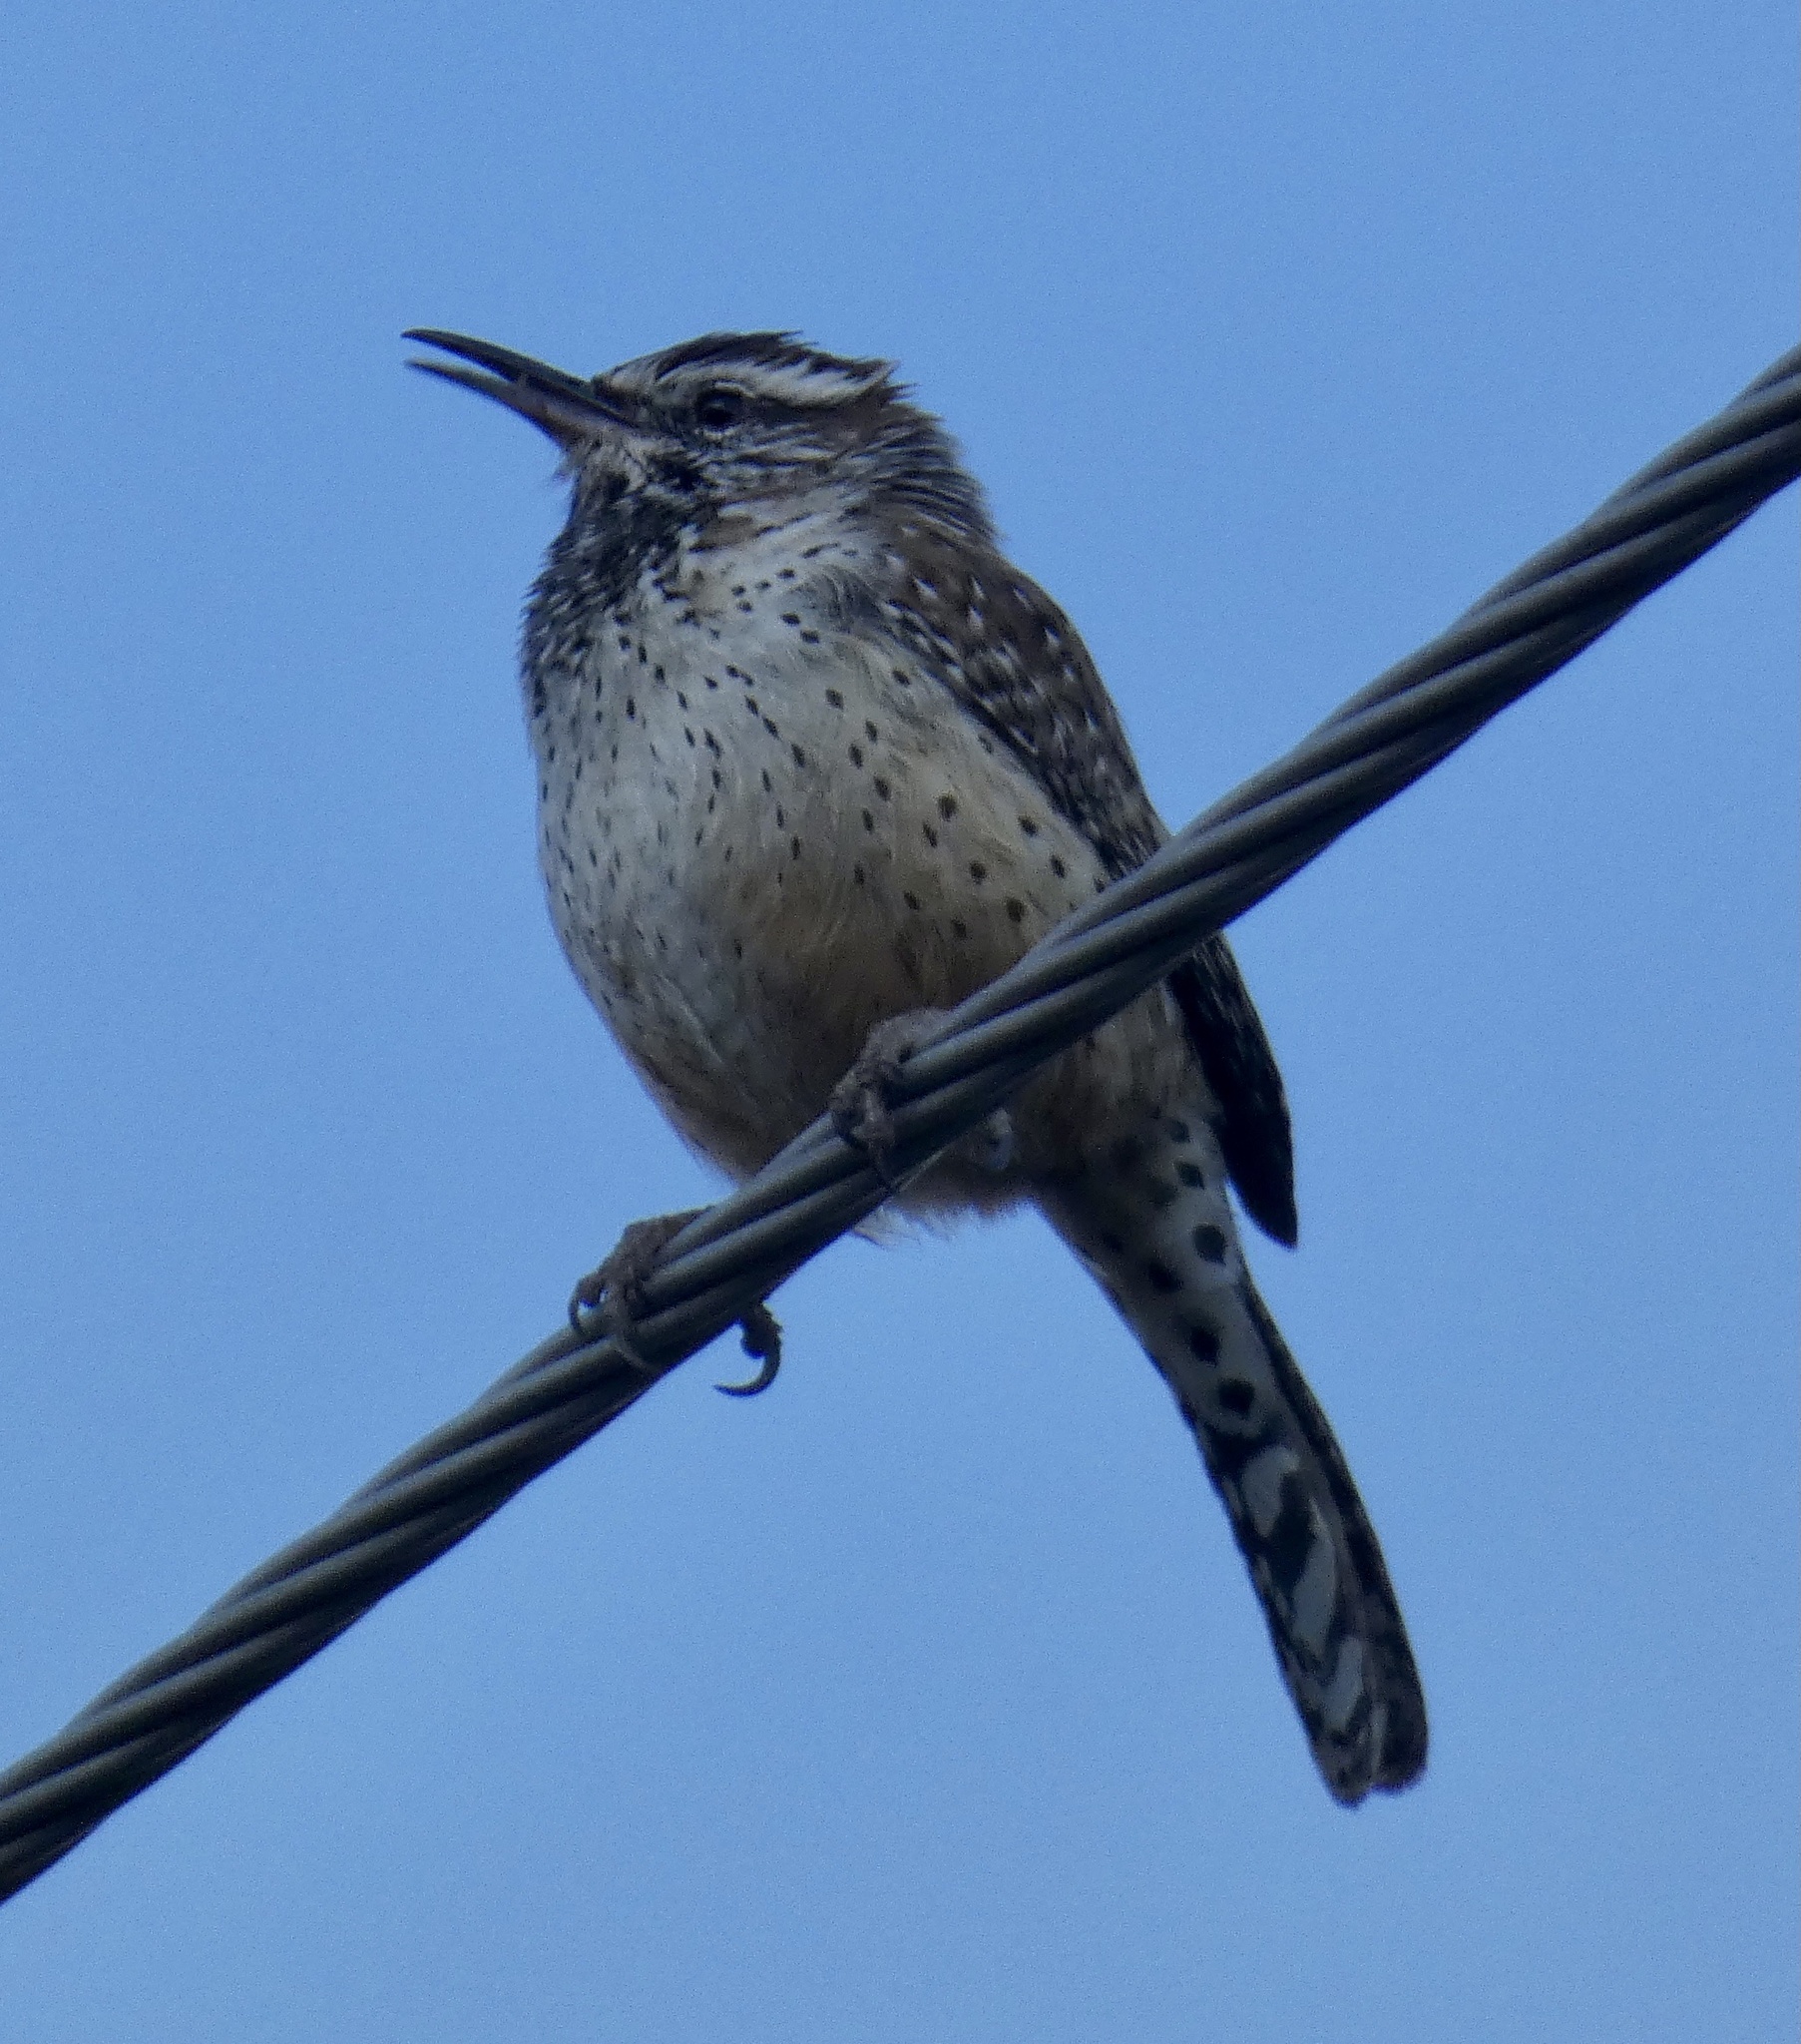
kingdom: Animalia
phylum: Chordata
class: Aves
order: Passeriformes
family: Troglodytidae
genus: Campylorhynchus
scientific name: Campylorhynchus brunneicapillus
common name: Cactus wren
